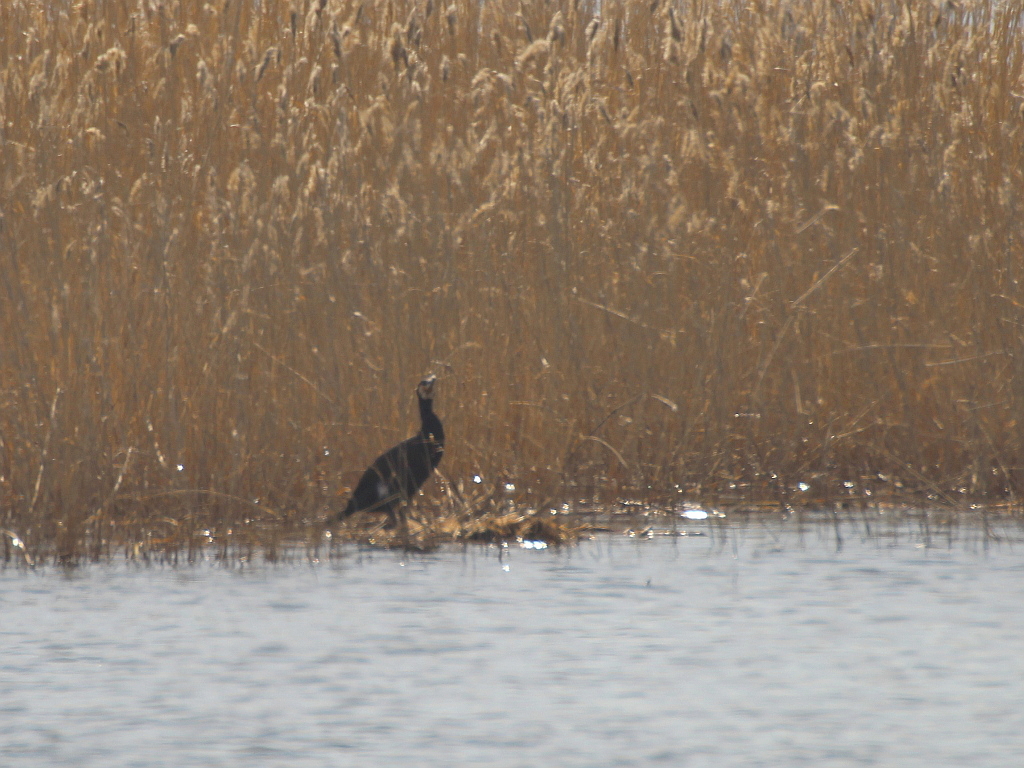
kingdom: Animalia
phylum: Chordata
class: Aves
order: Suliformes
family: Phalacrocoracidae
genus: Phalacrocorax
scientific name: Phalacrocorax carbo
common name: Great cormorant
